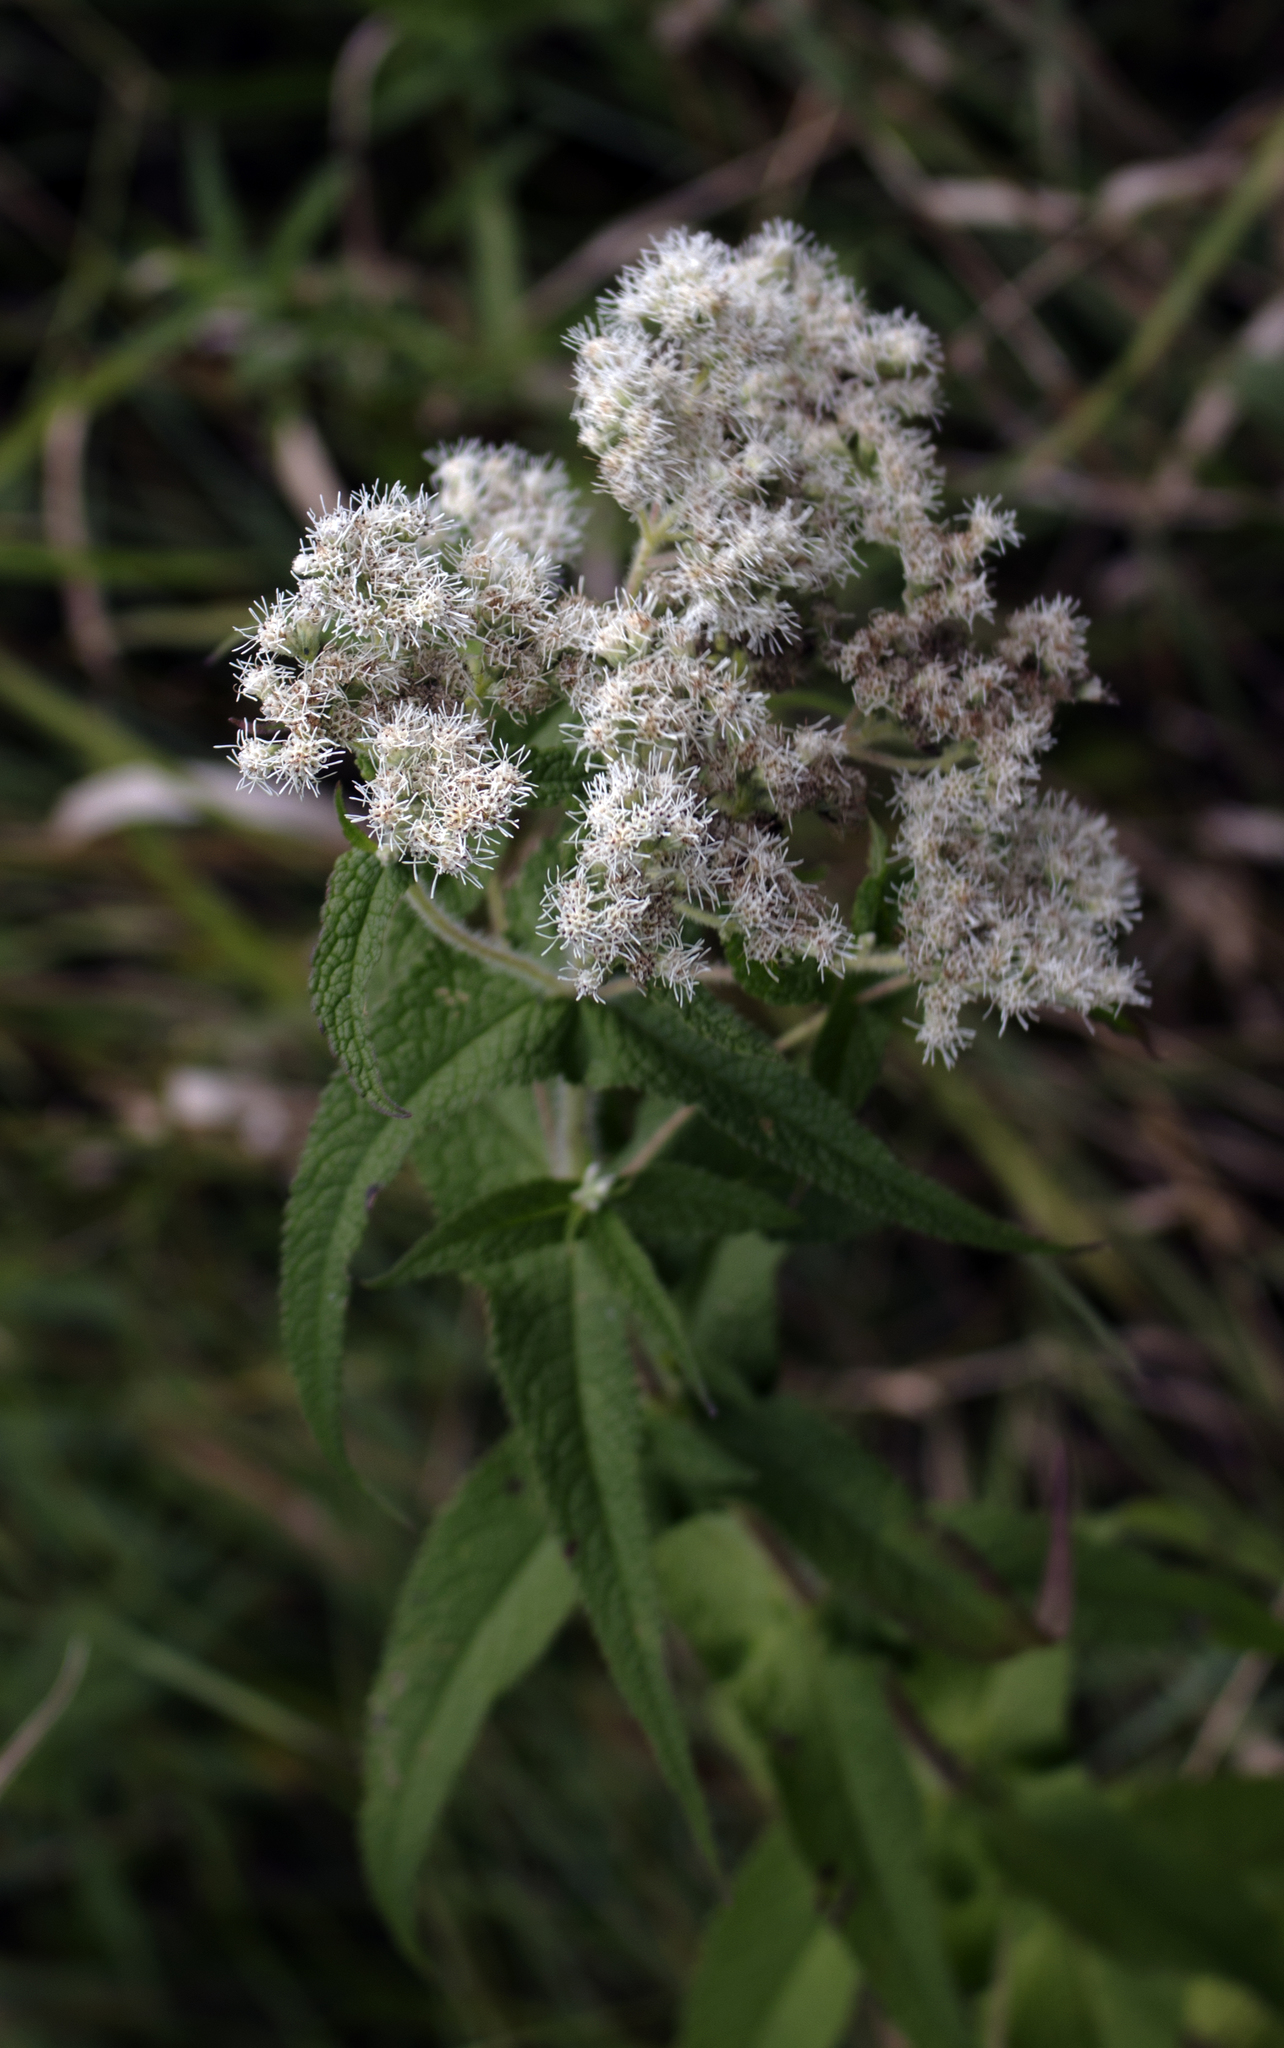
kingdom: Plantae
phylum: Tracheophyta
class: Magnoliopsida
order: Asterales
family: Asteraceae
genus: Eupatorium
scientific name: Eupatorium perfoliatum
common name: Boneset
